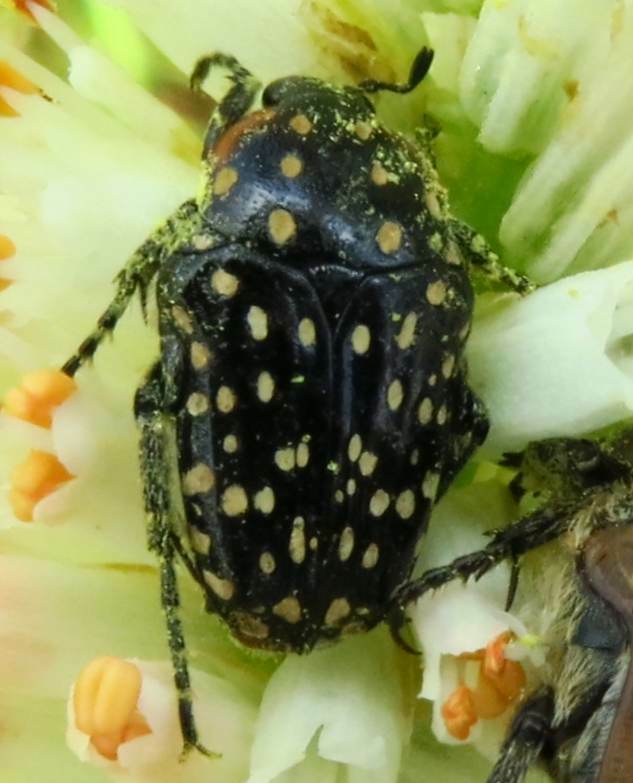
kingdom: Animalia
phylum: Arthropoda
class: Insecta
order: Coleoptera
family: Scarabaeidae
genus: Oxythyrea
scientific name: Oxythyrea
